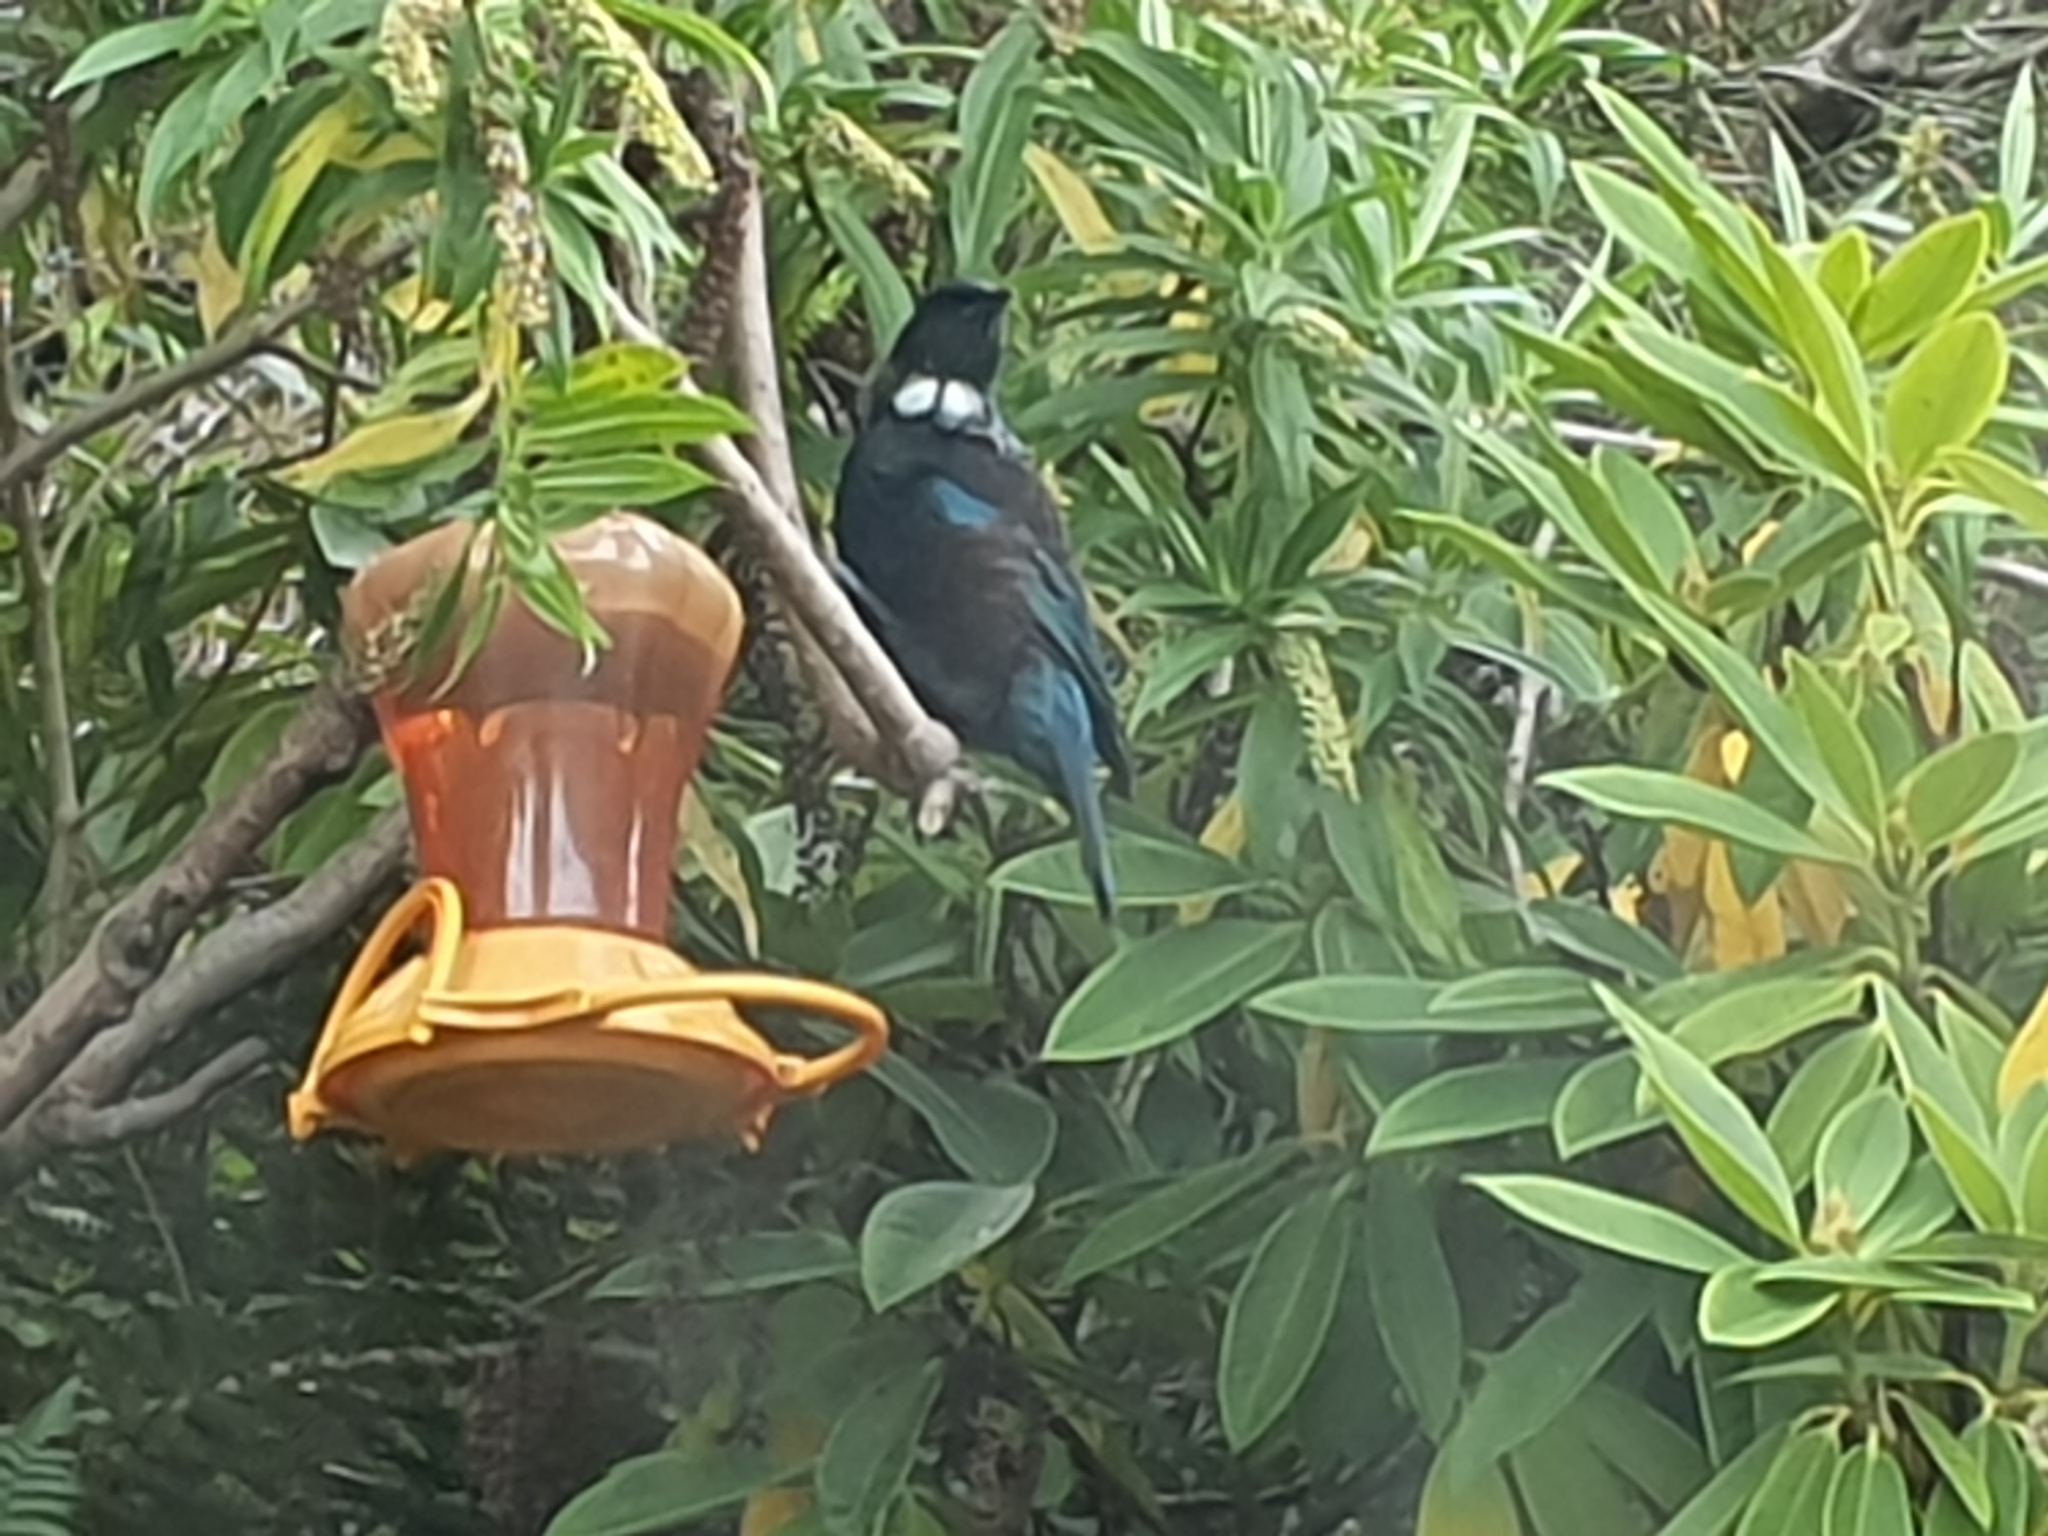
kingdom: Animalia
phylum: Chordata
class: Aves
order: Passeriformes
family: Meliphagidae
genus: Prosthemadera
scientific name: Prosthemadera novaeseelandiae
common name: Tui
